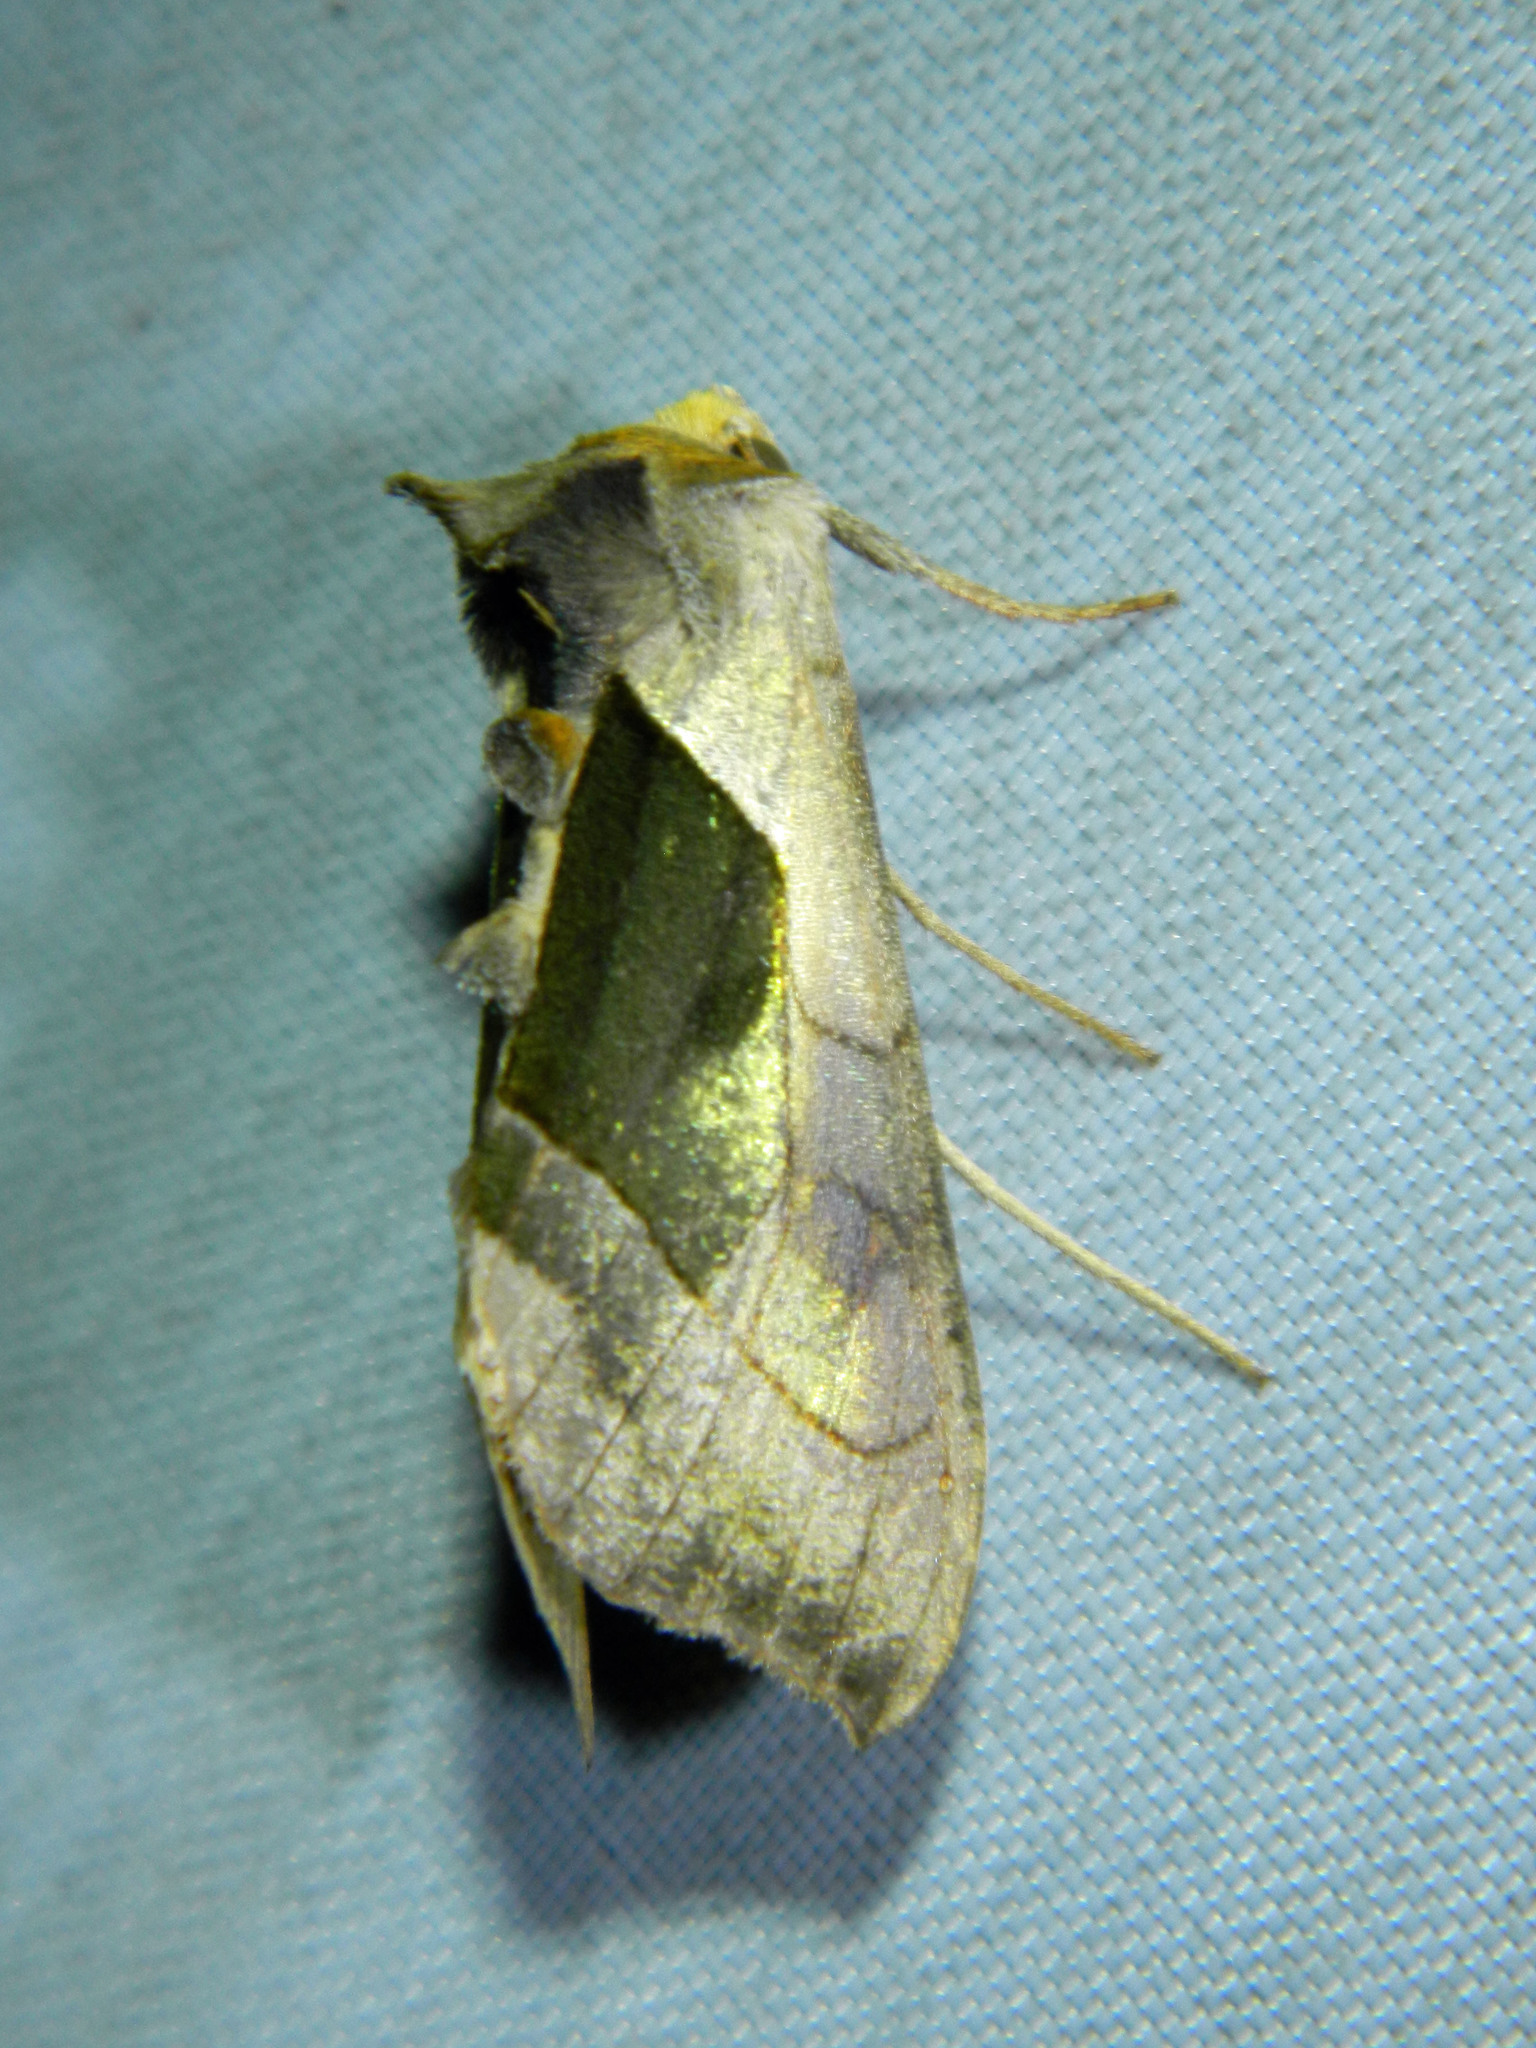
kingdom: Animalia
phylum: Arthropoda
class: Insecta
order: Lepidoptera
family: Noctuidae
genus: Diachrysia
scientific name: Diachrysia balluca
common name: Green-patched looper moth
